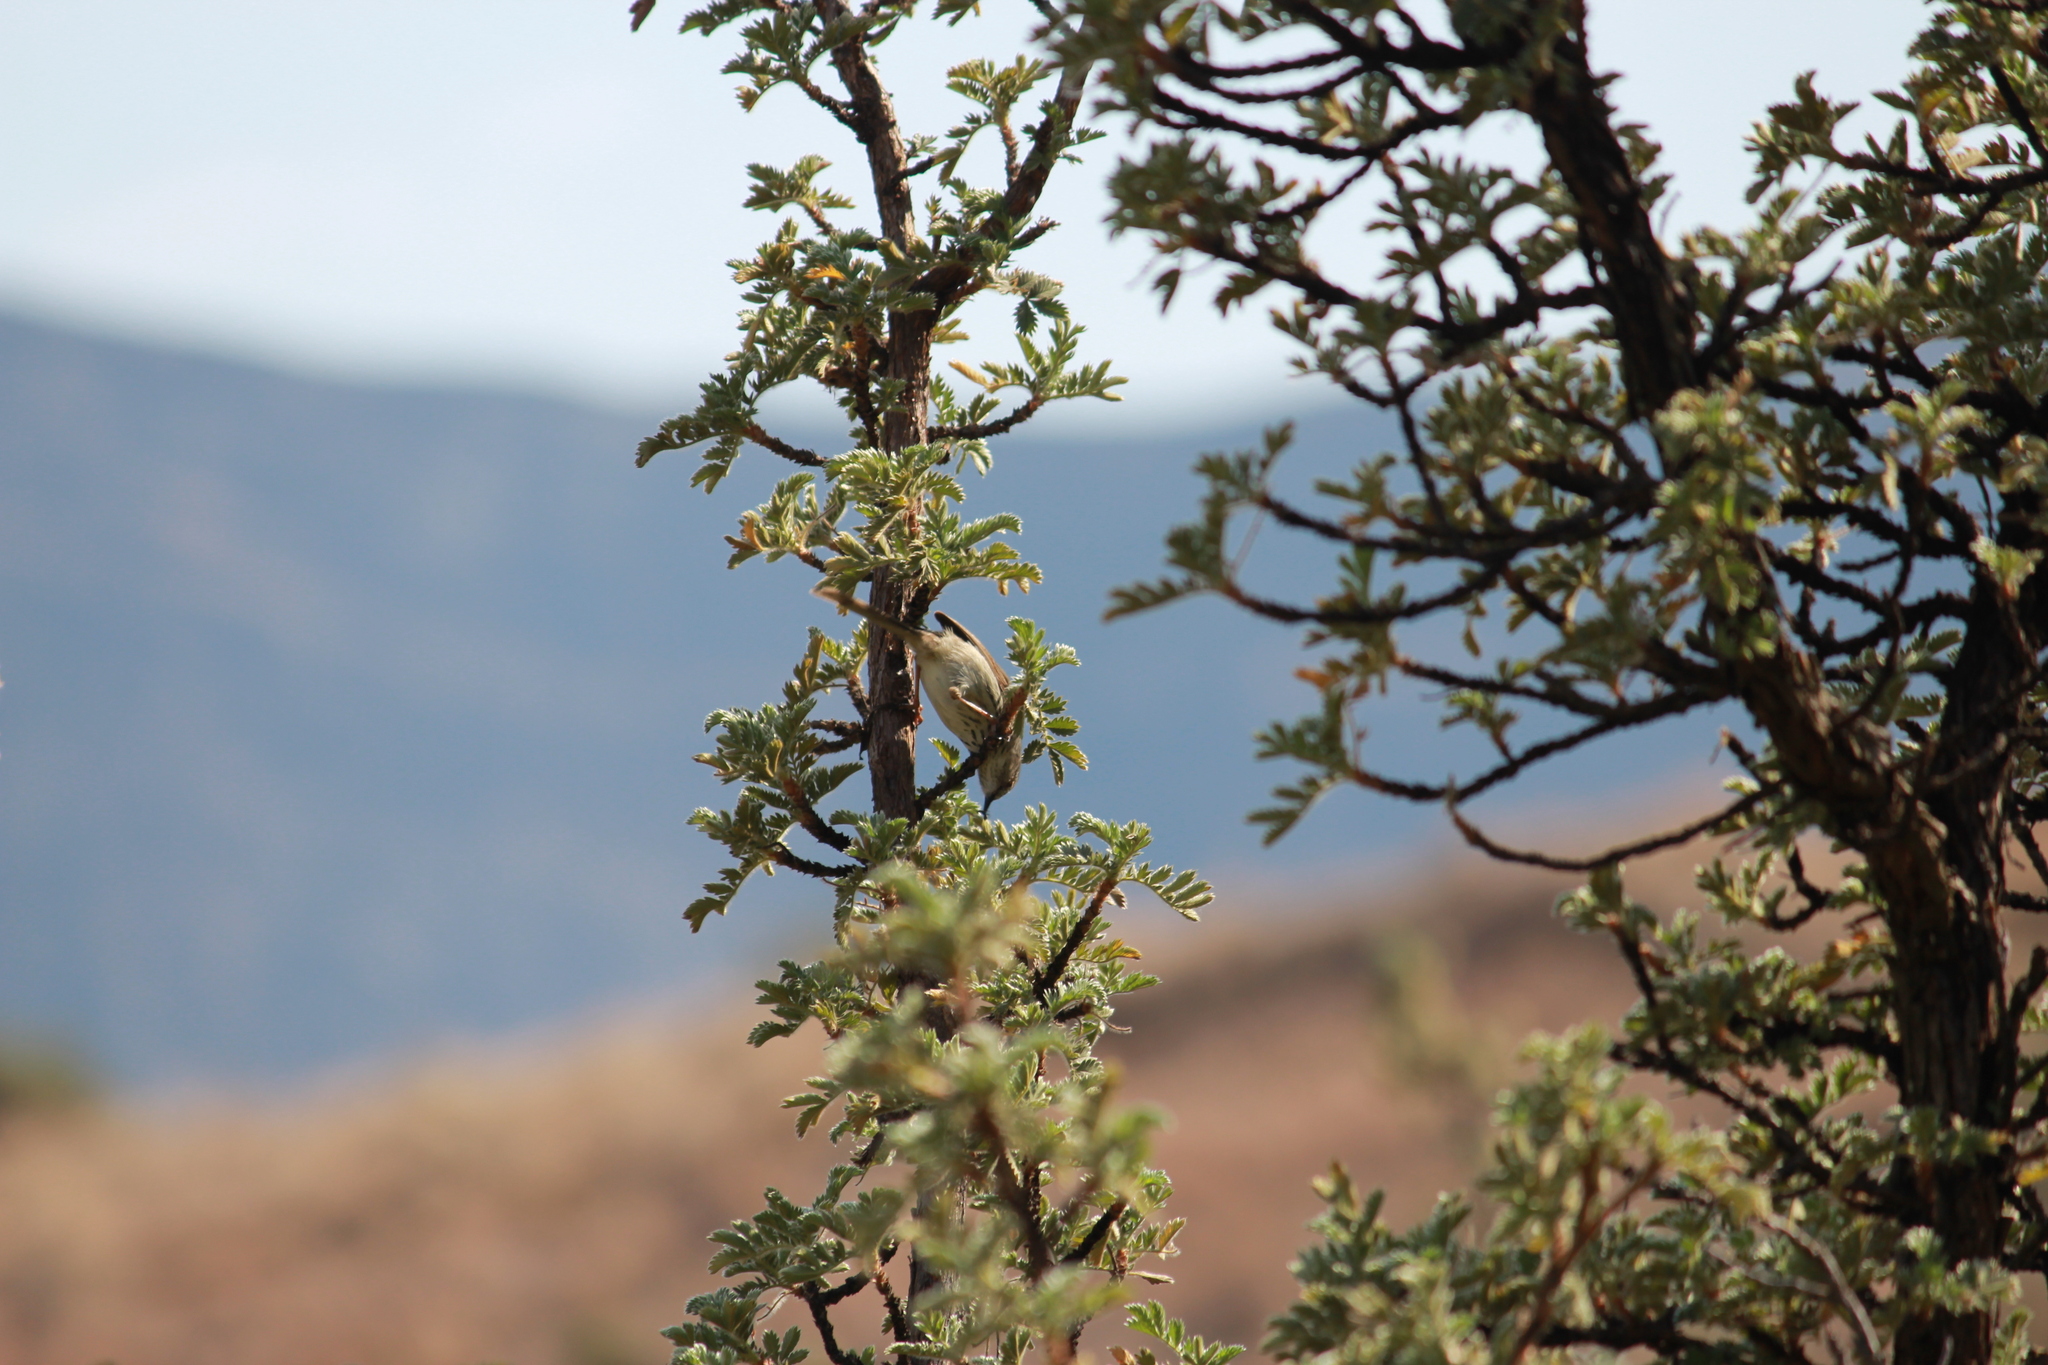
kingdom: Animalia
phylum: Chordata
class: Aves
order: Passeriformes
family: Cisticolidae
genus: Prinia
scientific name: Prinia hypoxantha
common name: Drakensberg prinia
